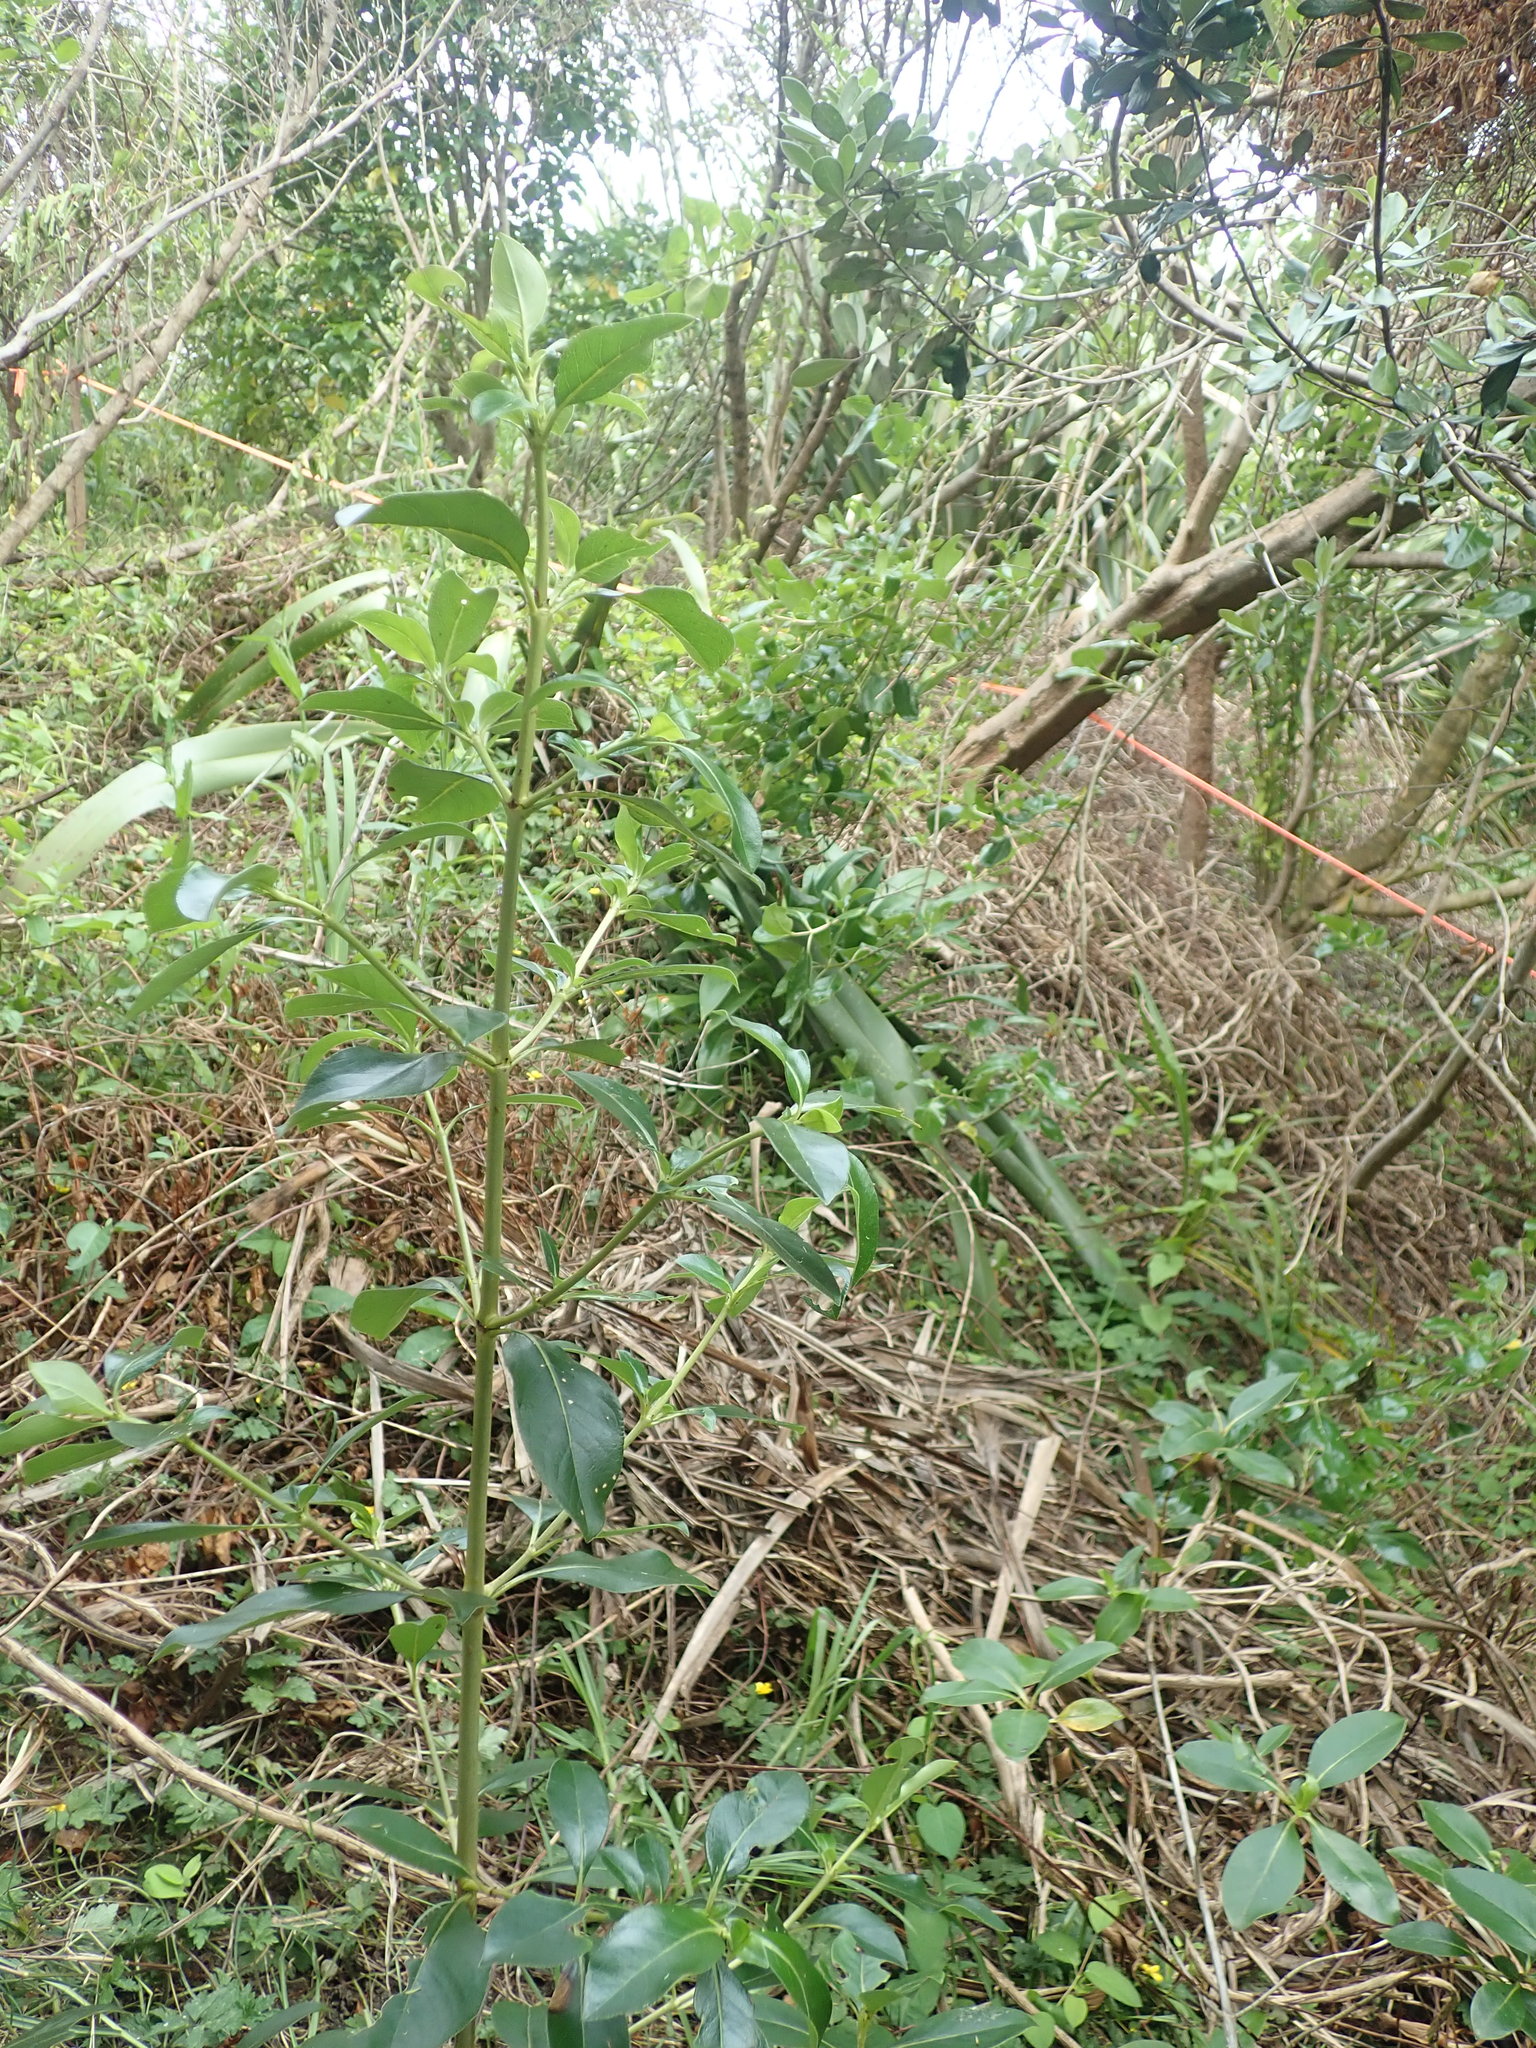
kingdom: Plantae
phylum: Tracheophyta
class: Magnoliopsida
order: Gentianales
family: Rubiaceae
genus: Coprosma
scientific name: Coprosma robusta
